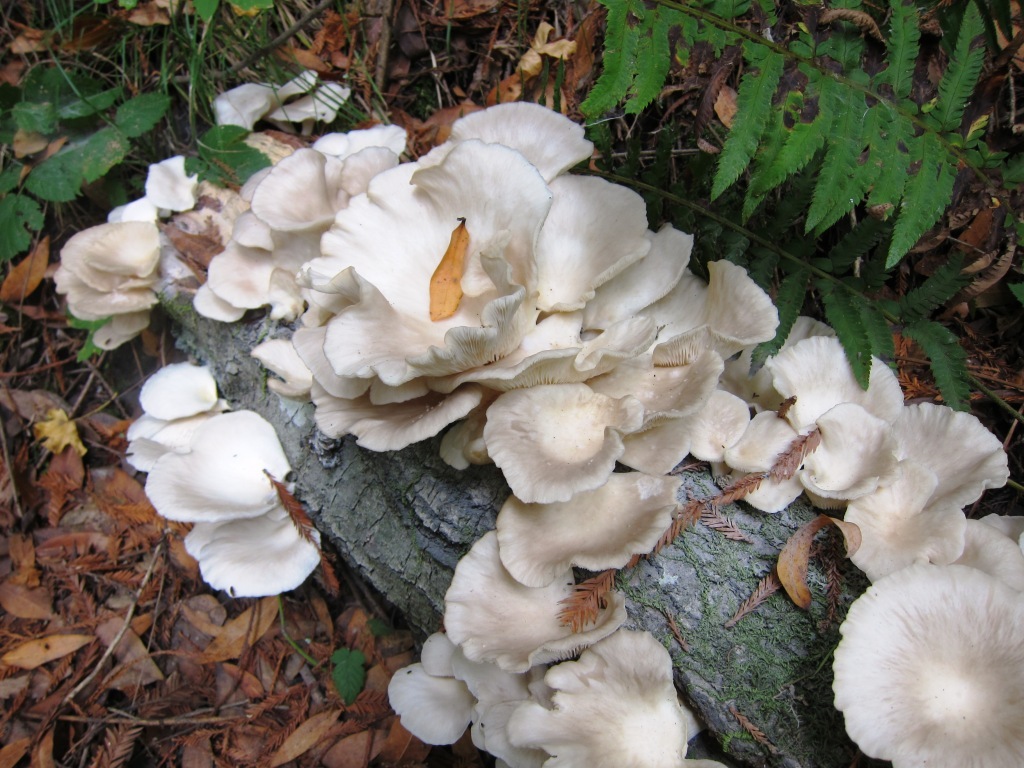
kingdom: Fungi
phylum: Basidiomycota
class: Agaricomycetes
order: Agaricales
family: Pleurotaceae
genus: Pleurotus
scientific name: Pleurotus ostreatus
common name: Oyster mushroom
